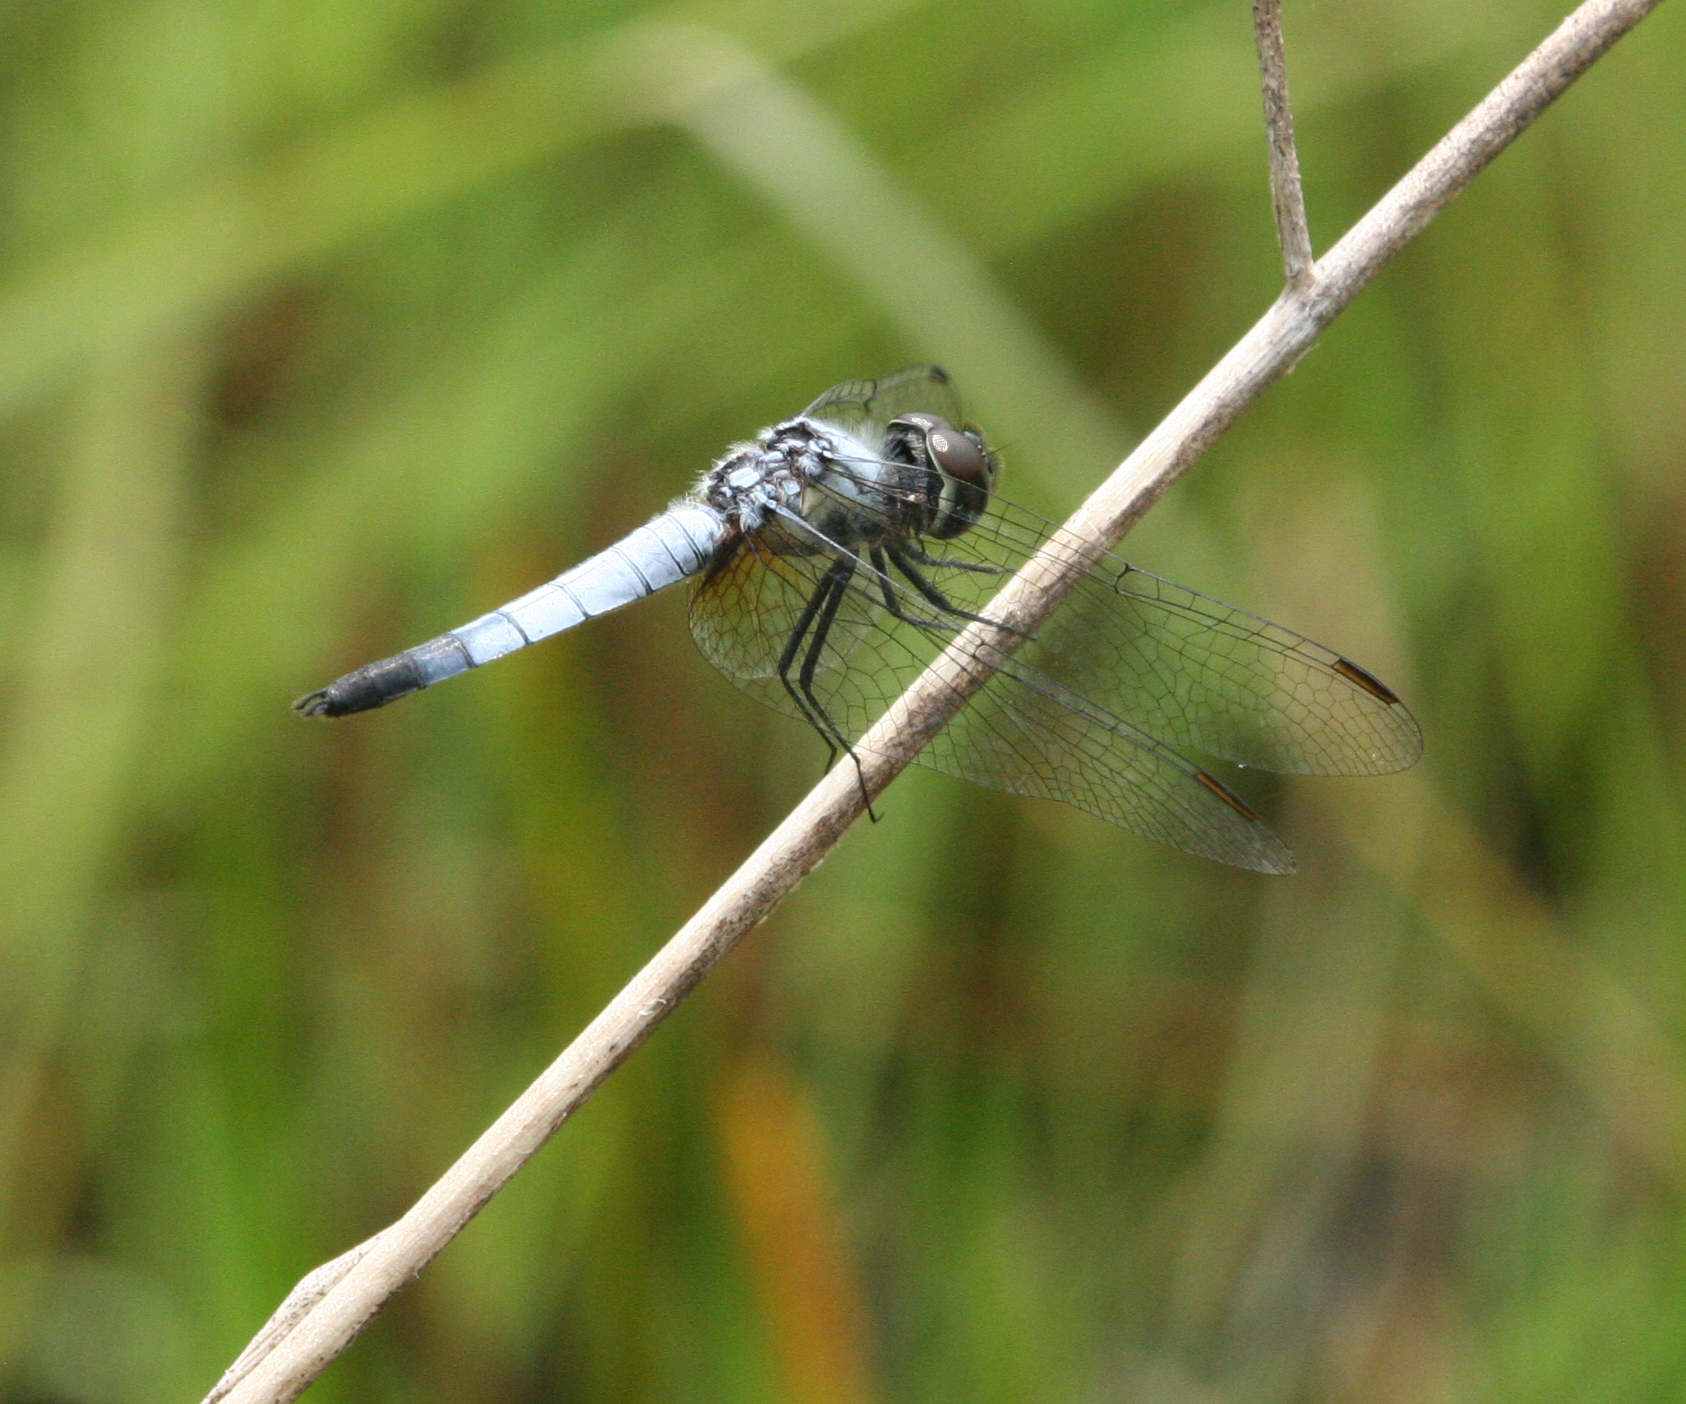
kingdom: Animalia
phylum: Arthropoda
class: Insecta
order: Odonata
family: Libellulidae
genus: Aethriamanta
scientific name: Aethriamanta gracilis
